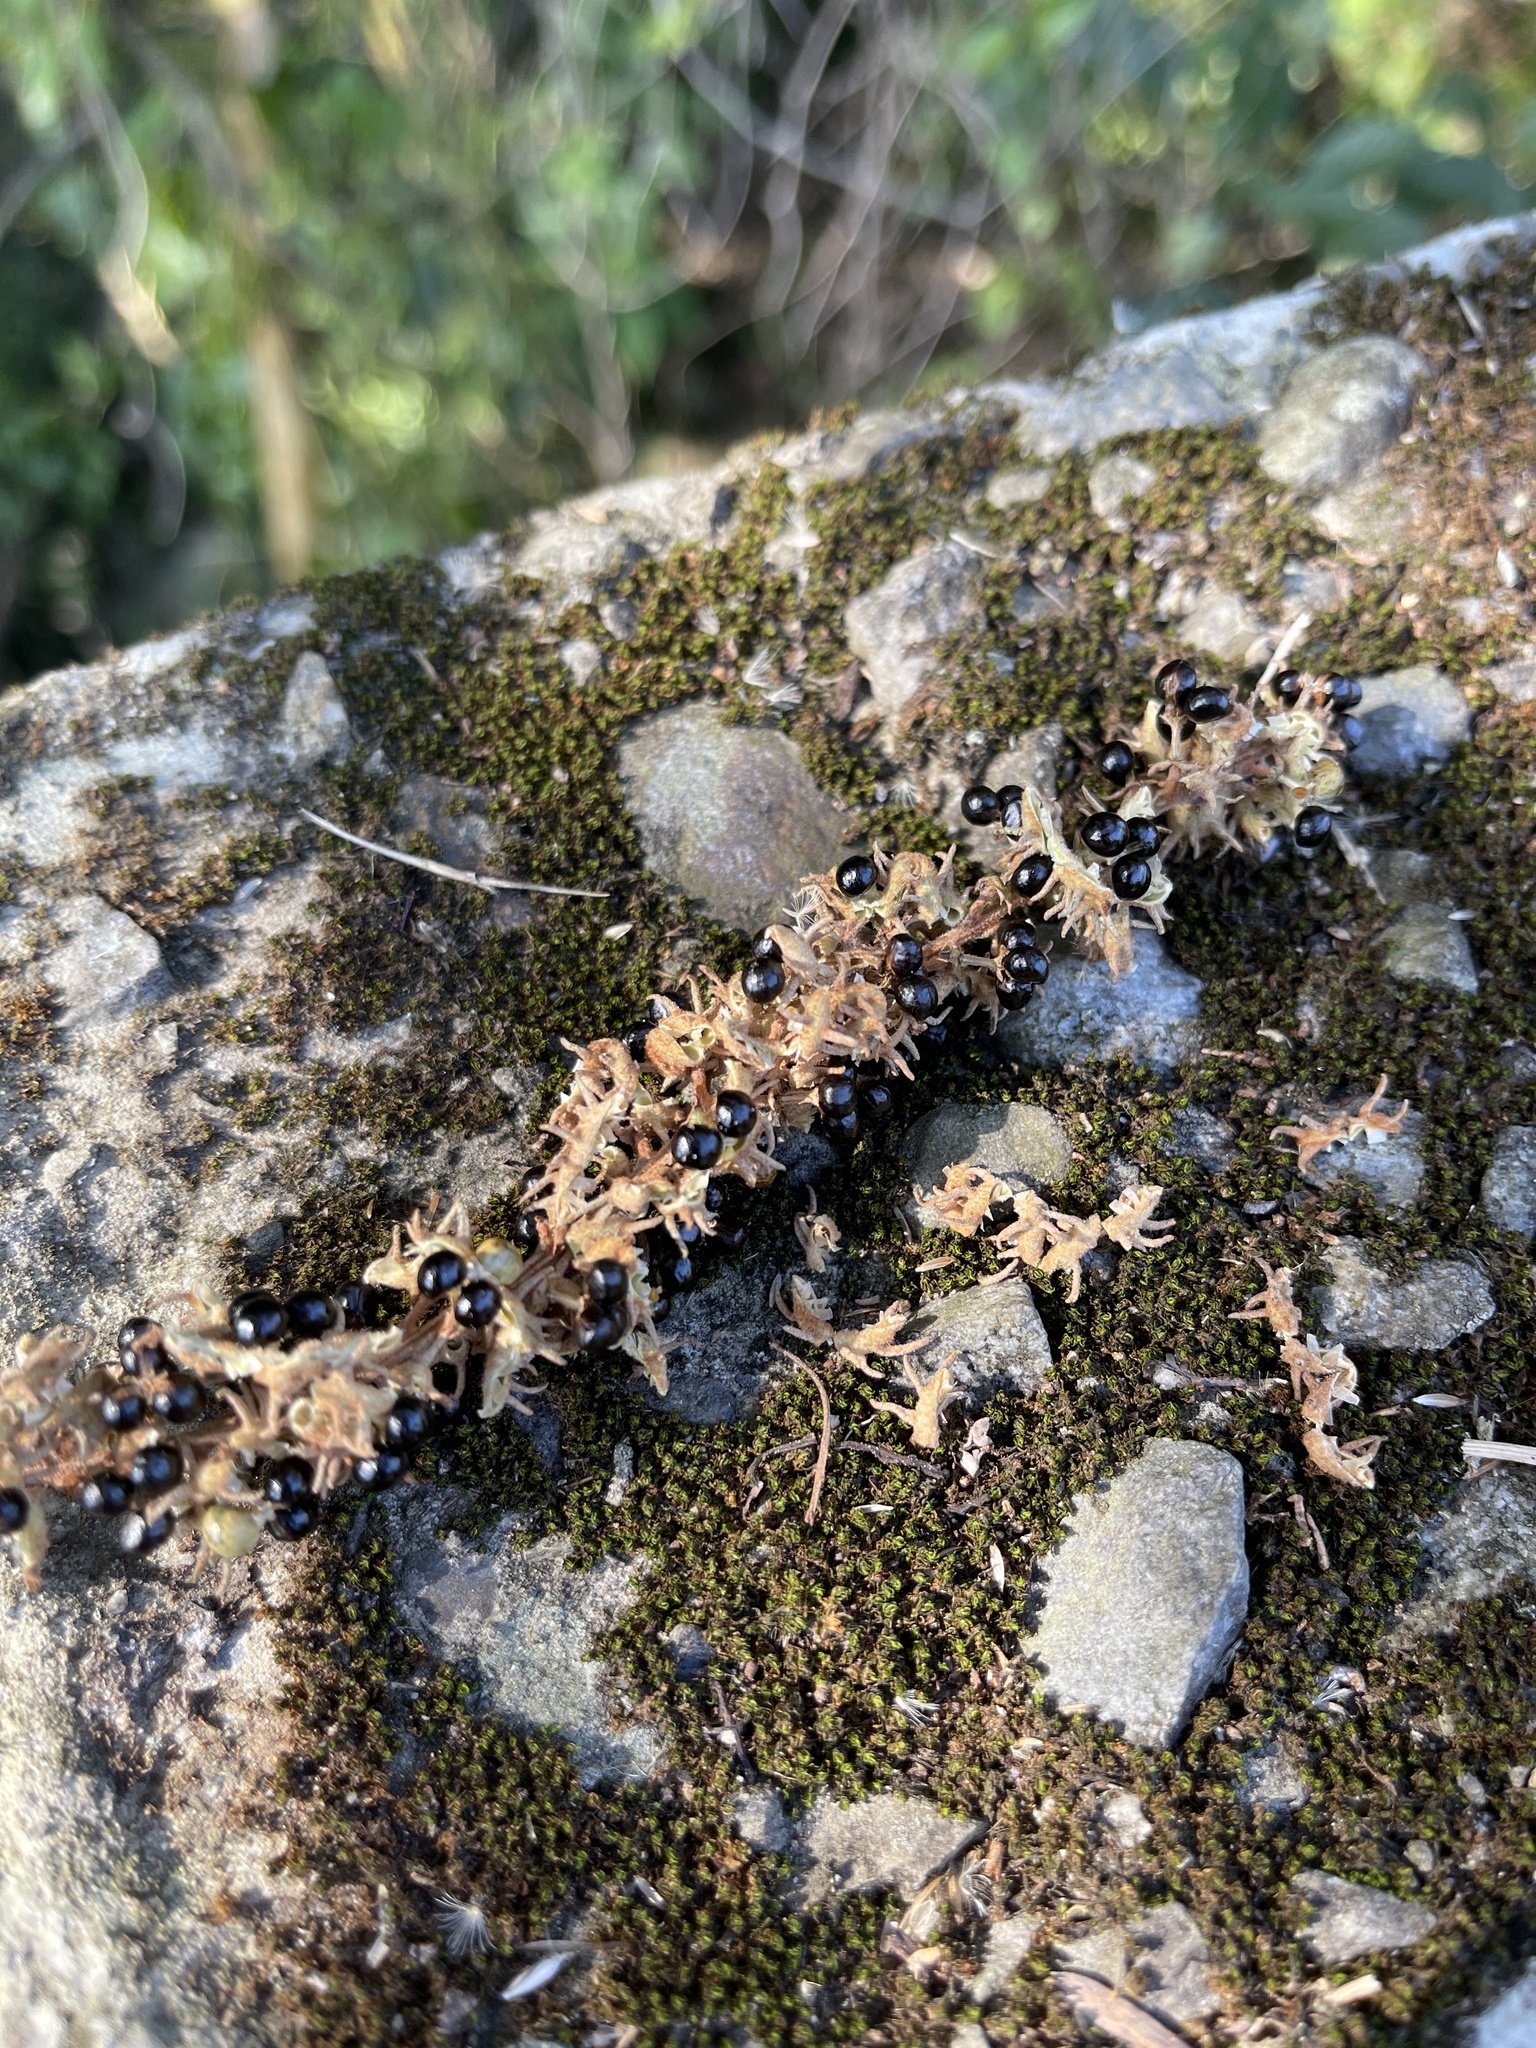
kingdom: Plantae
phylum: Tracheophyta
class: Magnoliopsida
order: Malpighiales
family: Euphorbiaceae
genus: Mallotus
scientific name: Mallotus paniculatus
